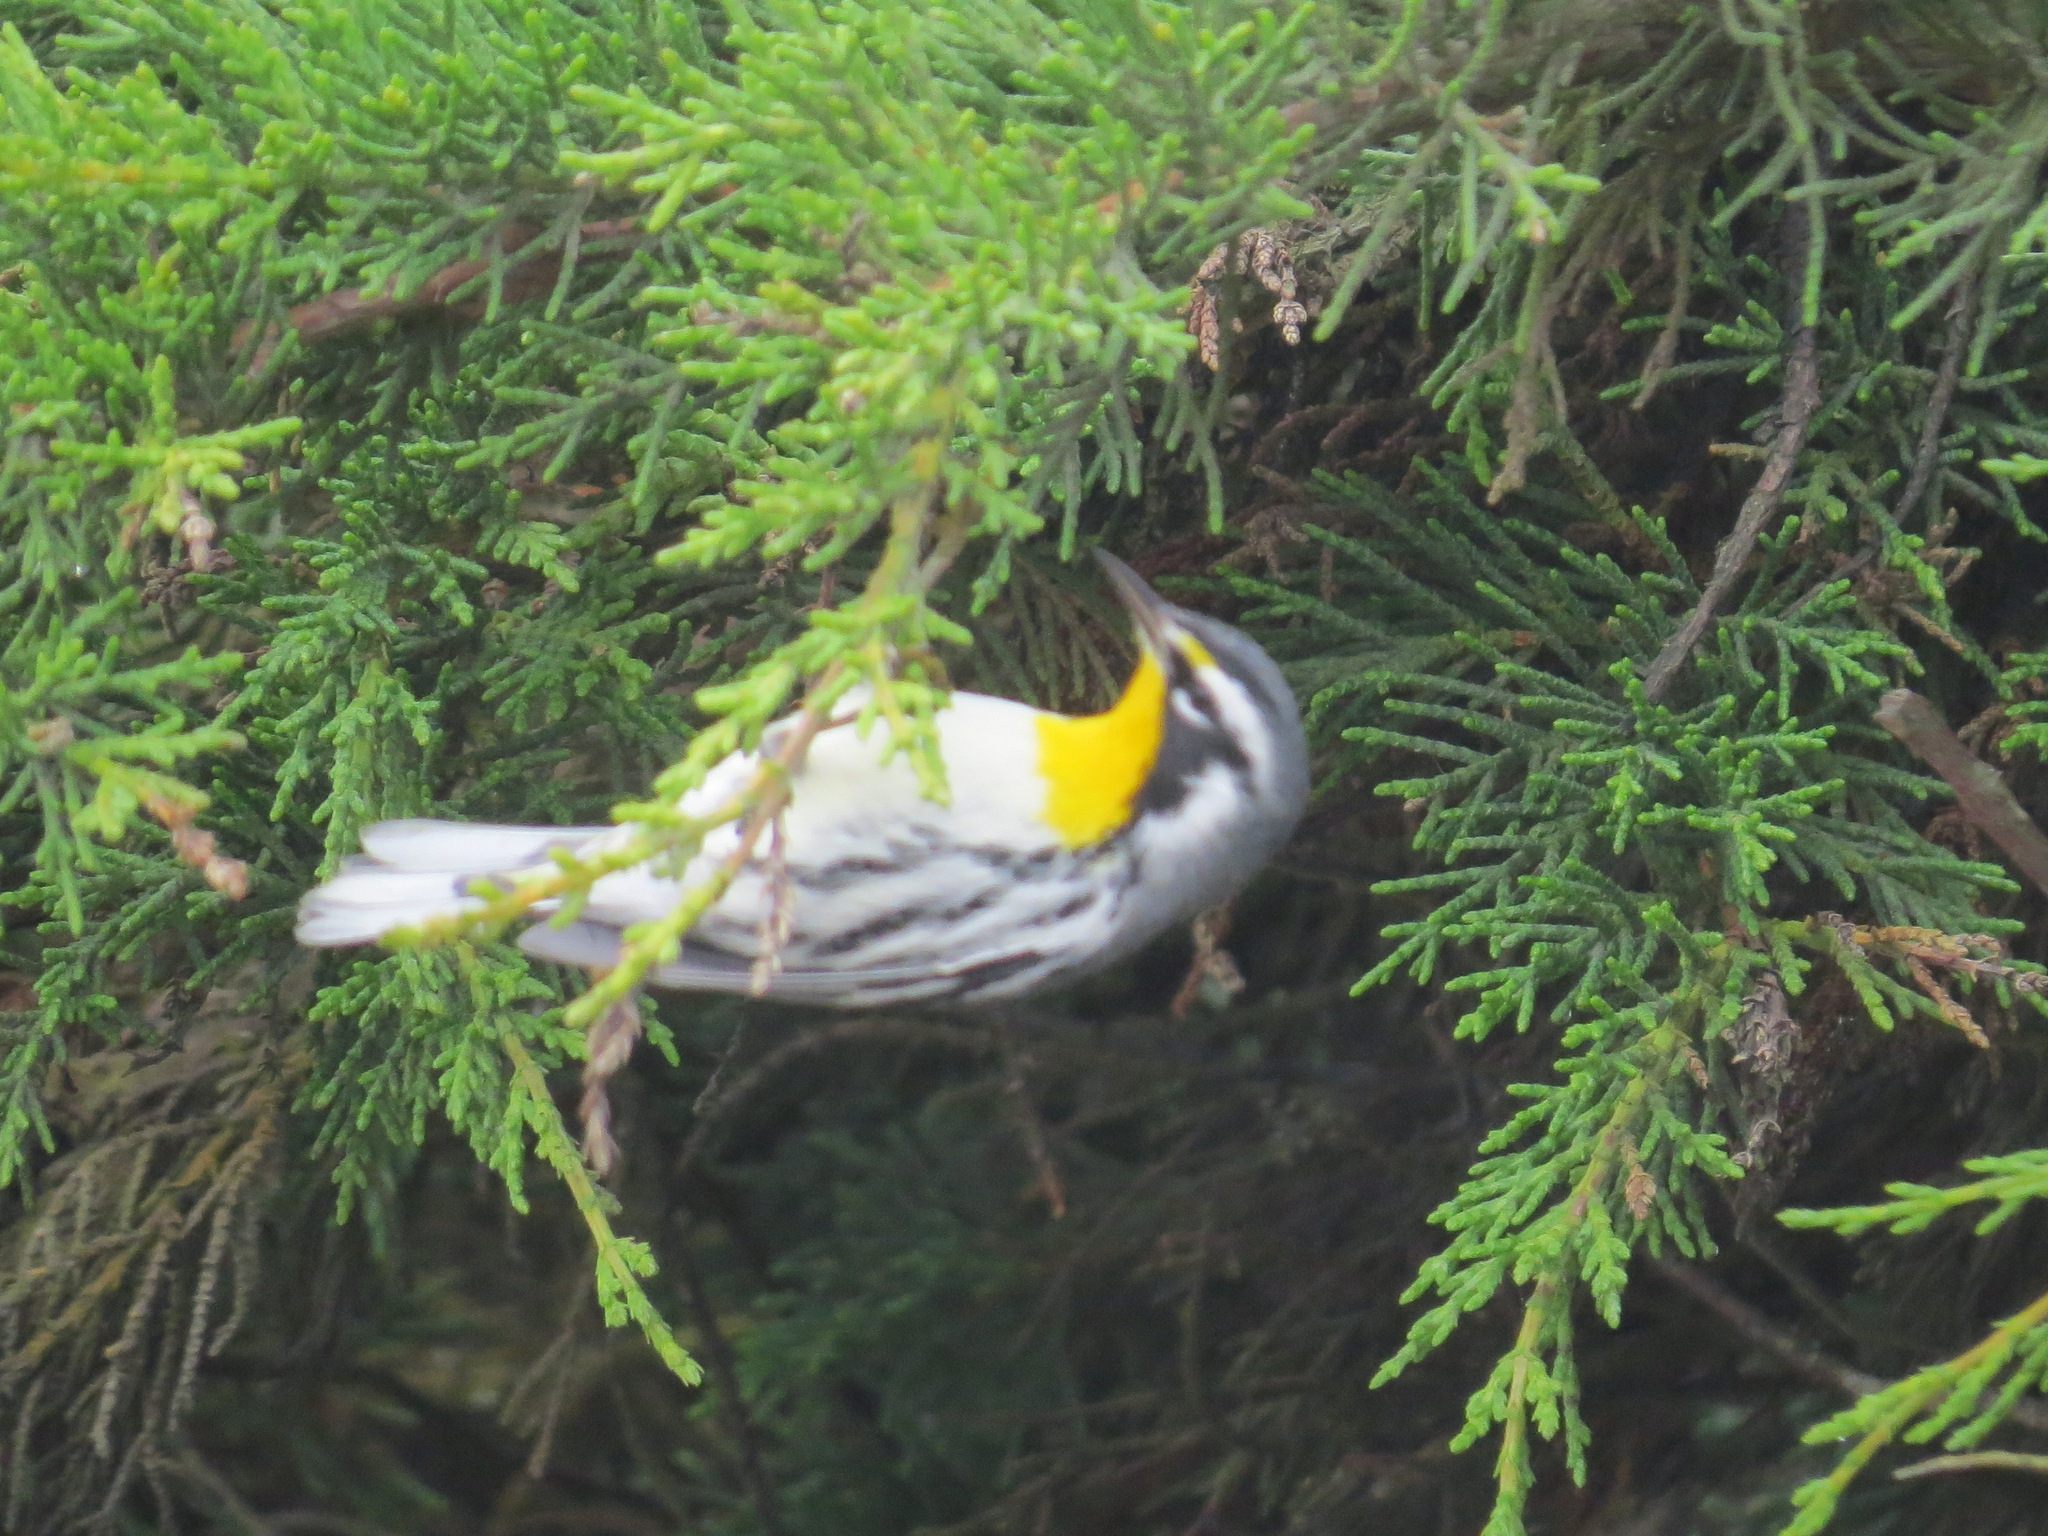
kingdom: Animalia
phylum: Chordata
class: Aves
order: Passeriformes
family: Parulidae
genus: Setophaga
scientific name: Setophaga dominica
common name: Yellow-throated warbler
